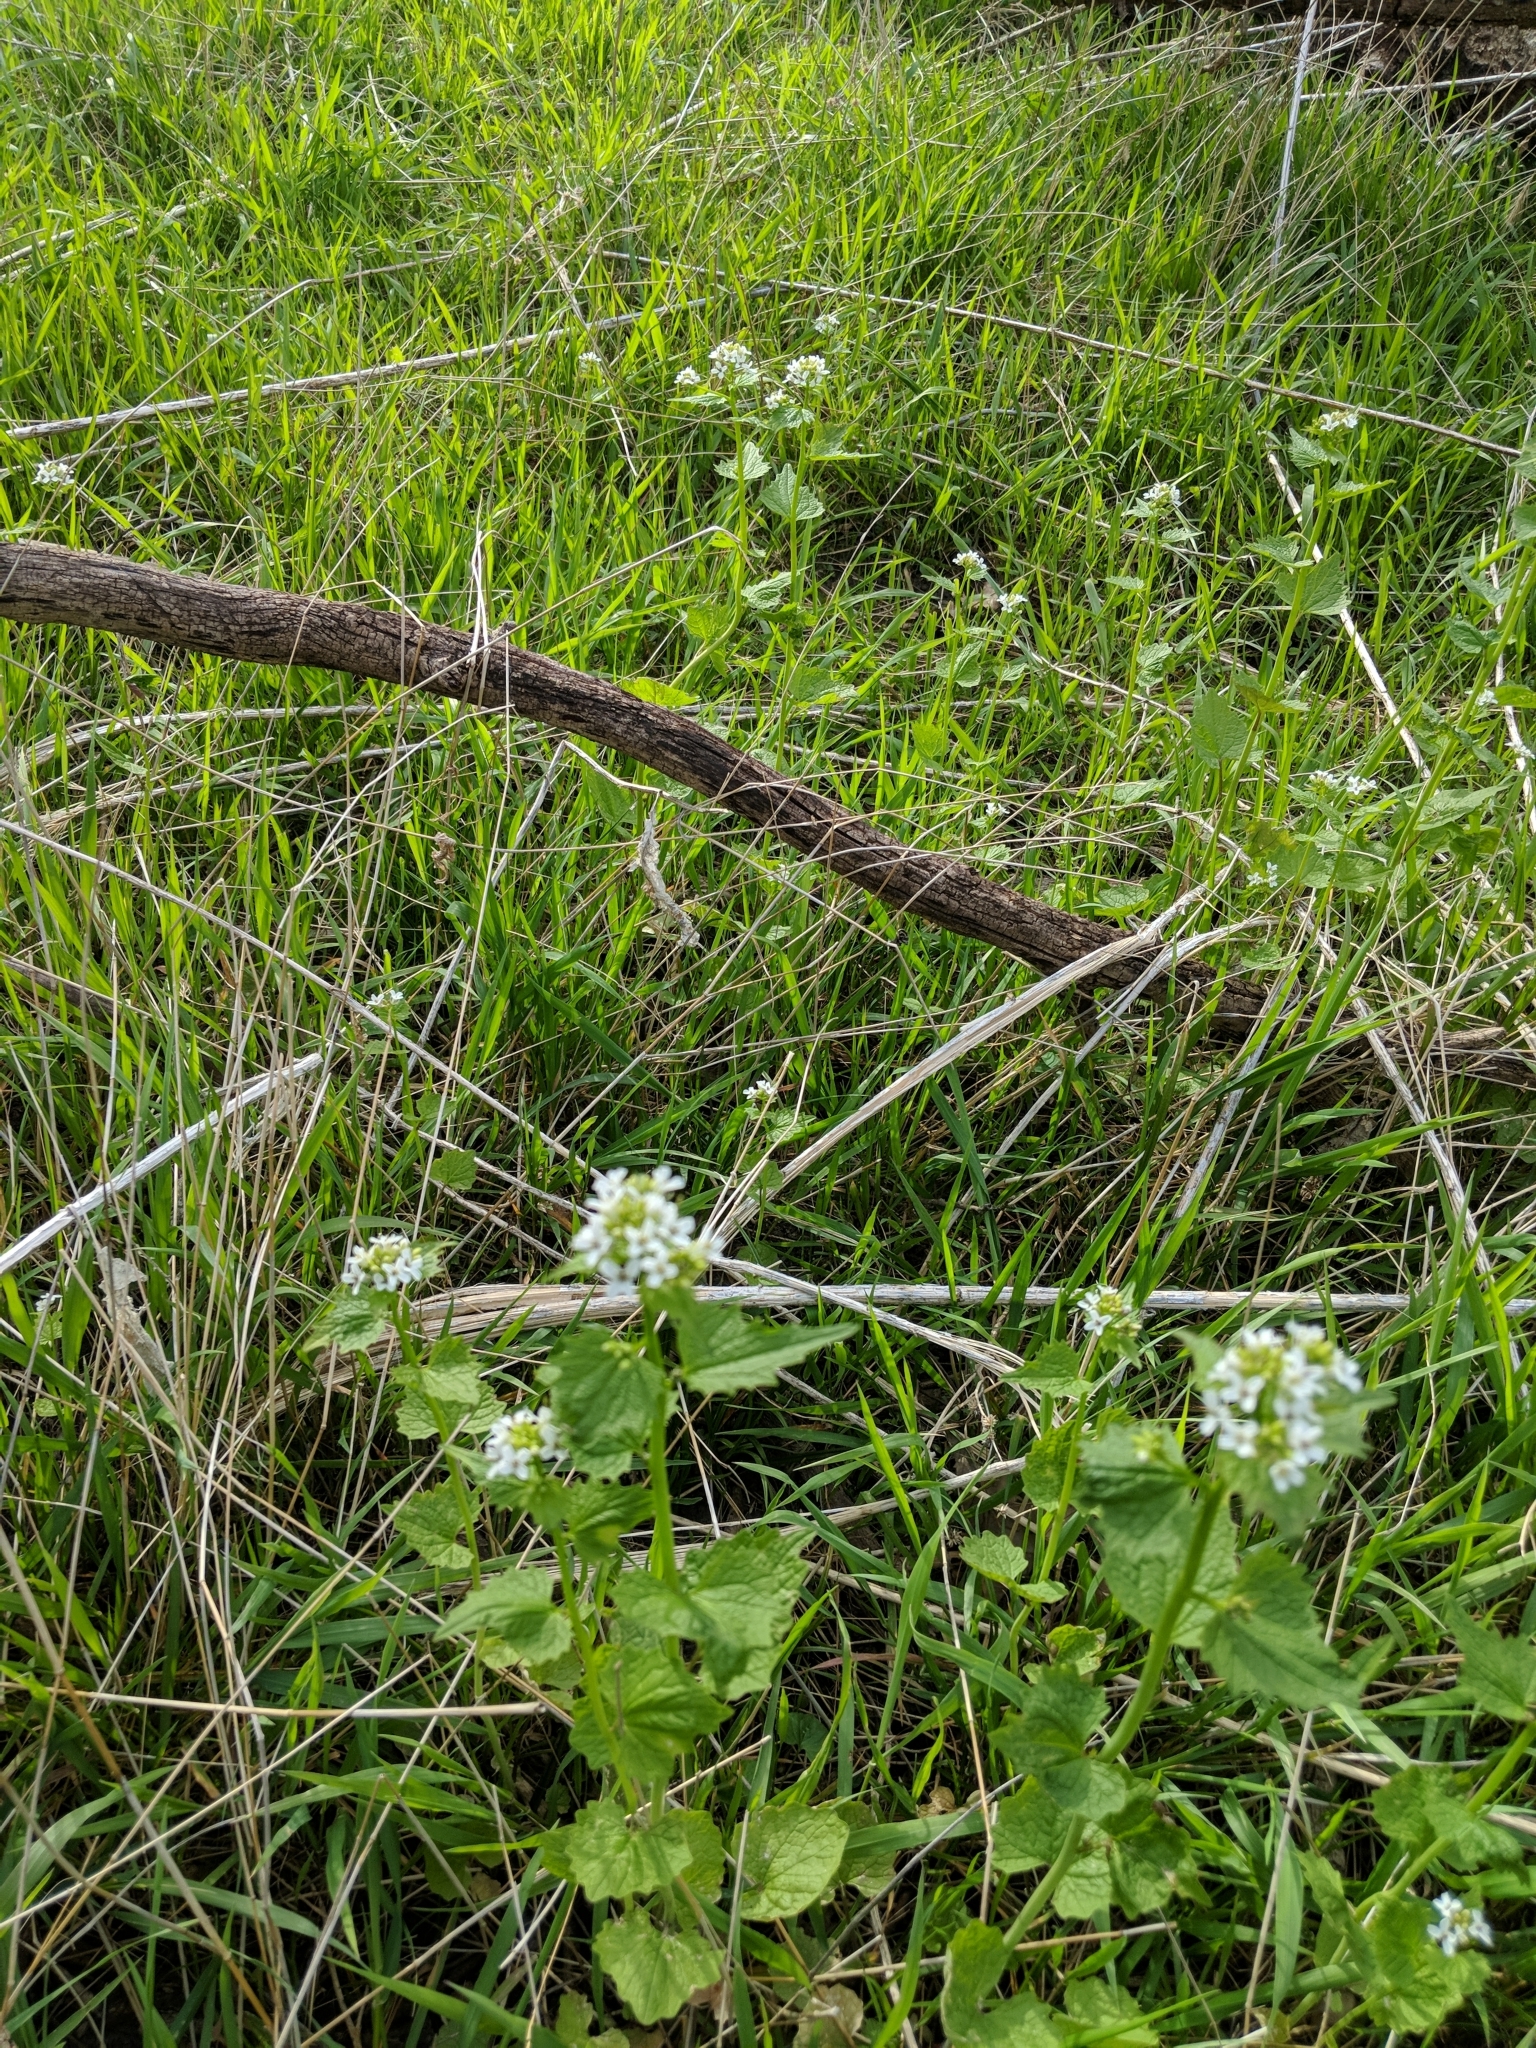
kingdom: Plantae
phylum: Tracheophyta
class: Magnoliopsida
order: Brassicales
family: Brassicaceae
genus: Alliaria
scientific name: Alliaria petiolata
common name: Garlic mustard
